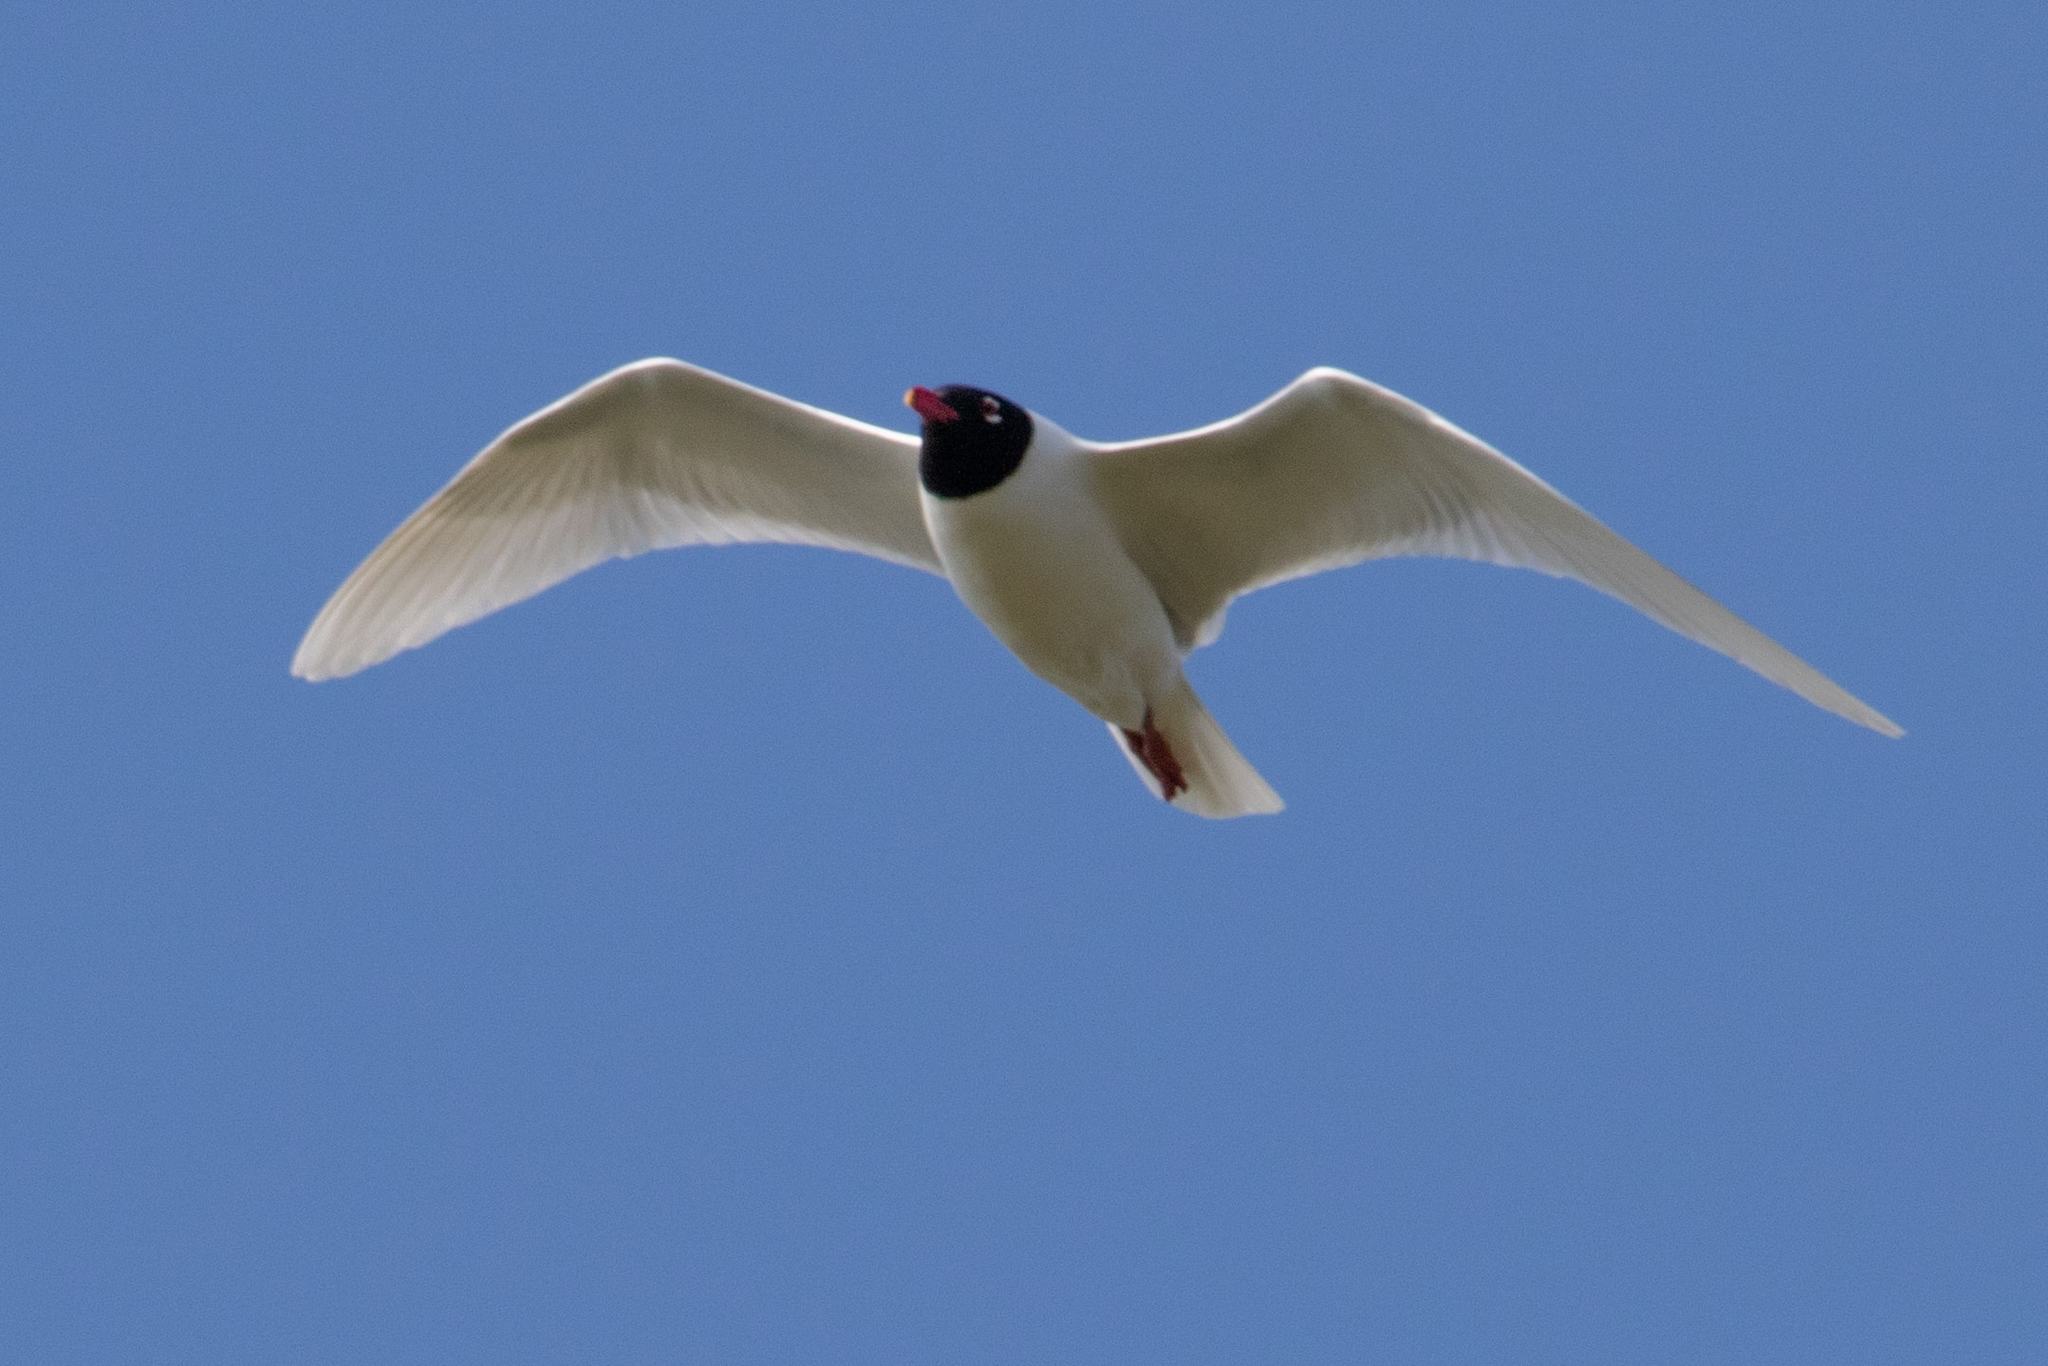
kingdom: Animalia
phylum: Chordata
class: Aves
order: Charadriiformes
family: Laridae
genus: Ichthyaetus
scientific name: Ichthyaetus melanocephalus
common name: Mediterranean gull
